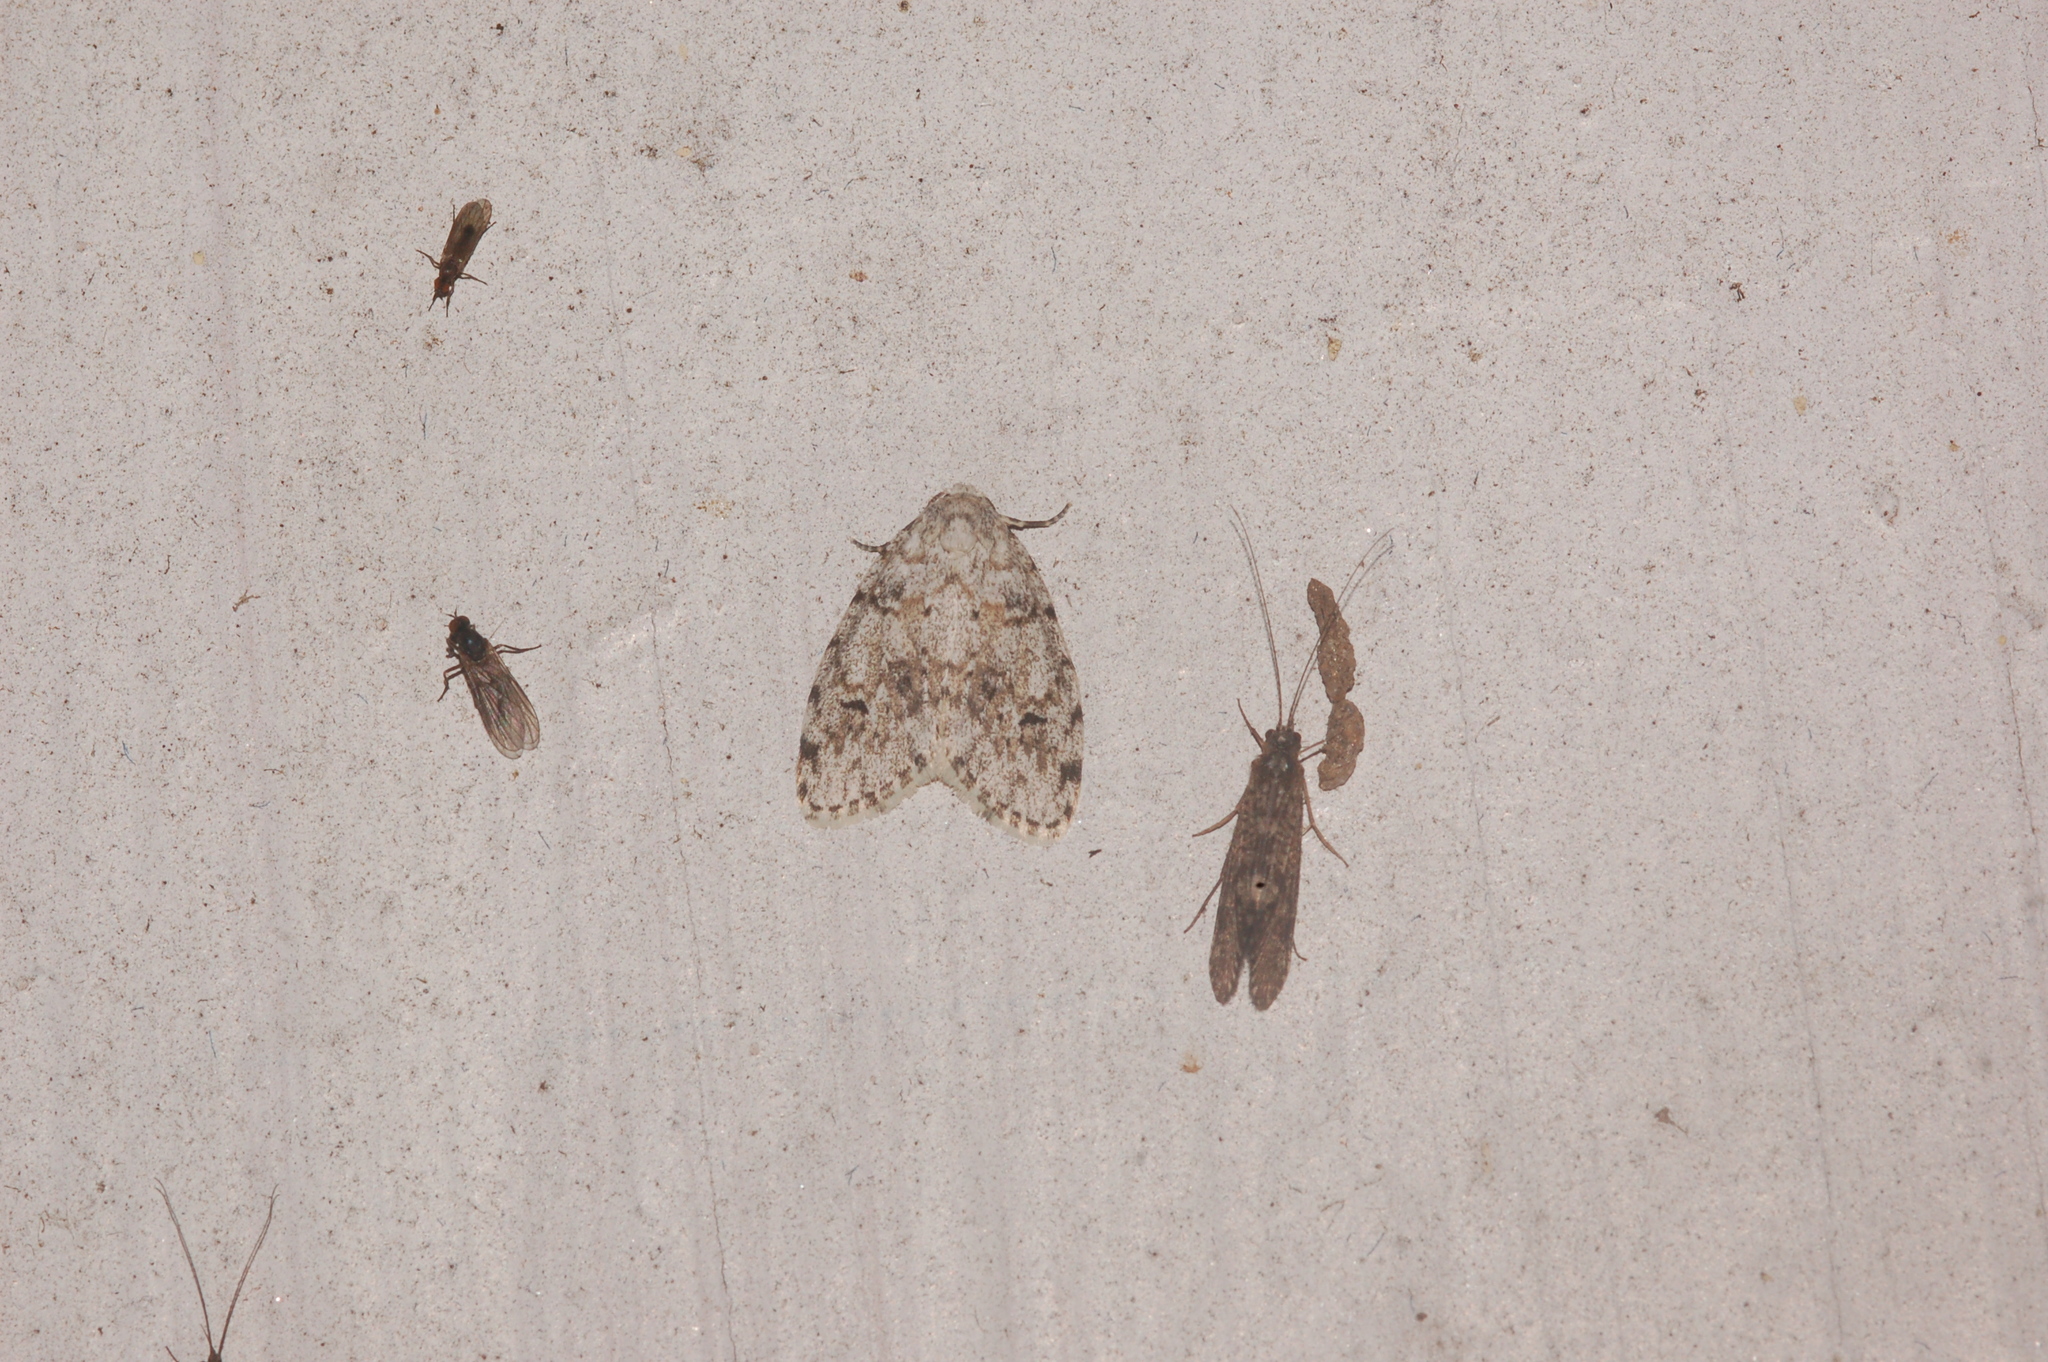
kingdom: Animalia
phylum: Arthropoda
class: Insecta
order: Lepidoptera
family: Erebidae
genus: Clemensia
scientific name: Clemensia albata
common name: Little white lichen moth
